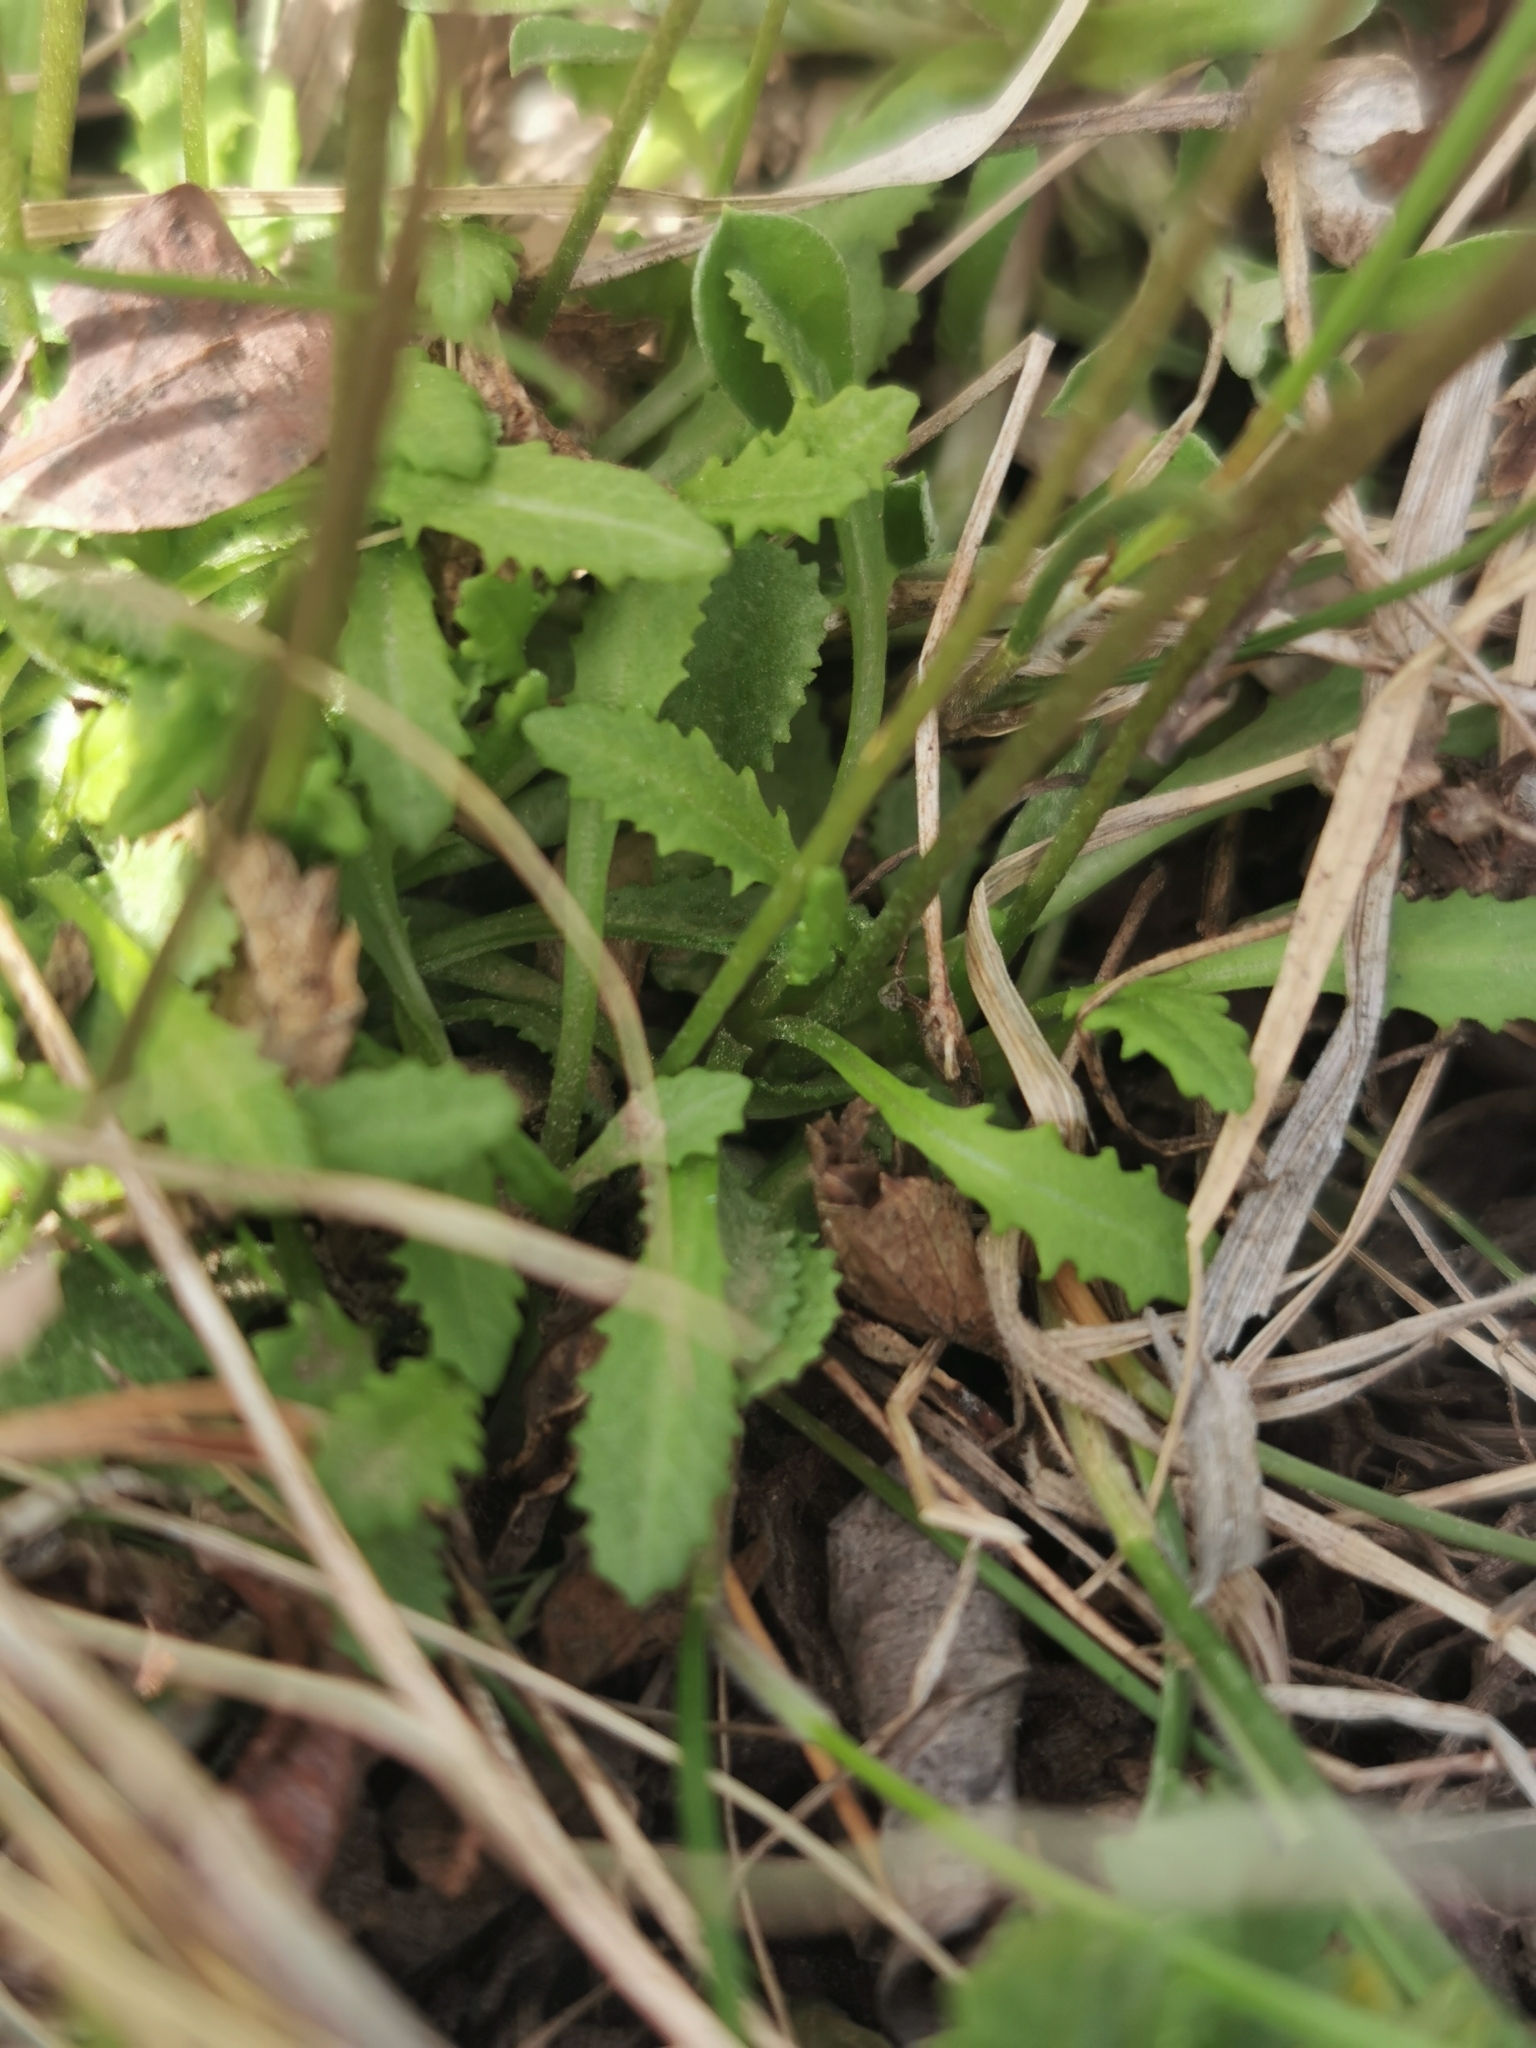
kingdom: Plantae
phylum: Tracheophyta
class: Magnoliopsida
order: Ericales
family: Primulaceae
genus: Primula
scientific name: Primula borealis
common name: Northern primrose
